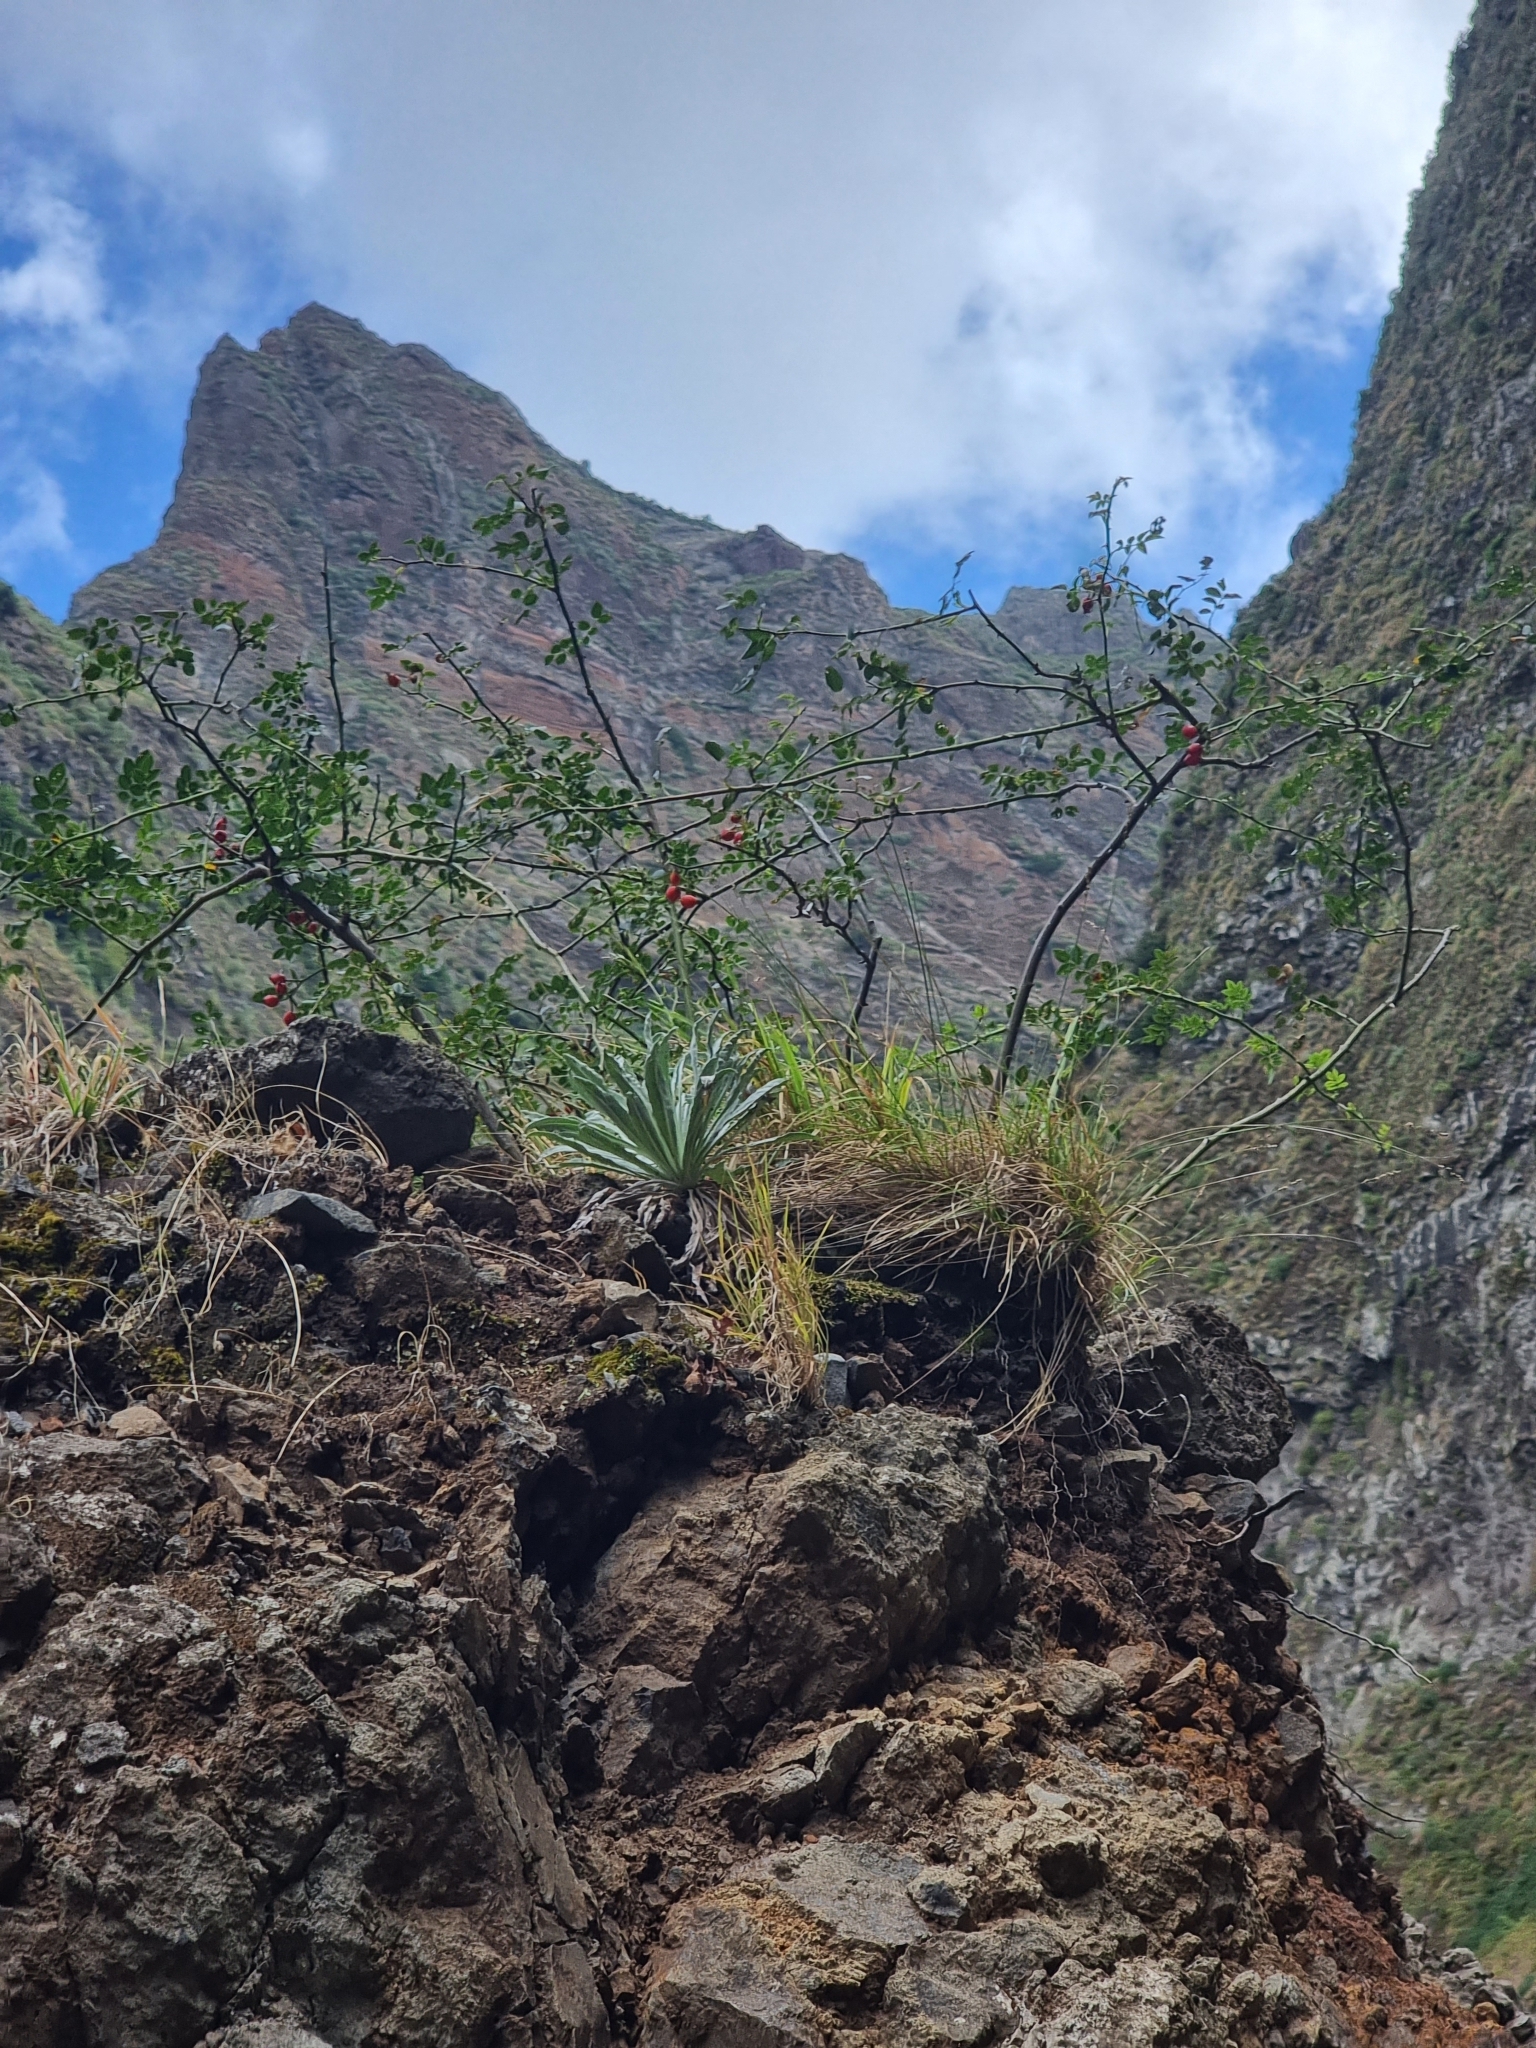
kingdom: Plantae
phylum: Tracheophyta
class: Magnoliopsida
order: Asterales
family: Asteraceae
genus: Andryala
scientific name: Andryala glandulosa
